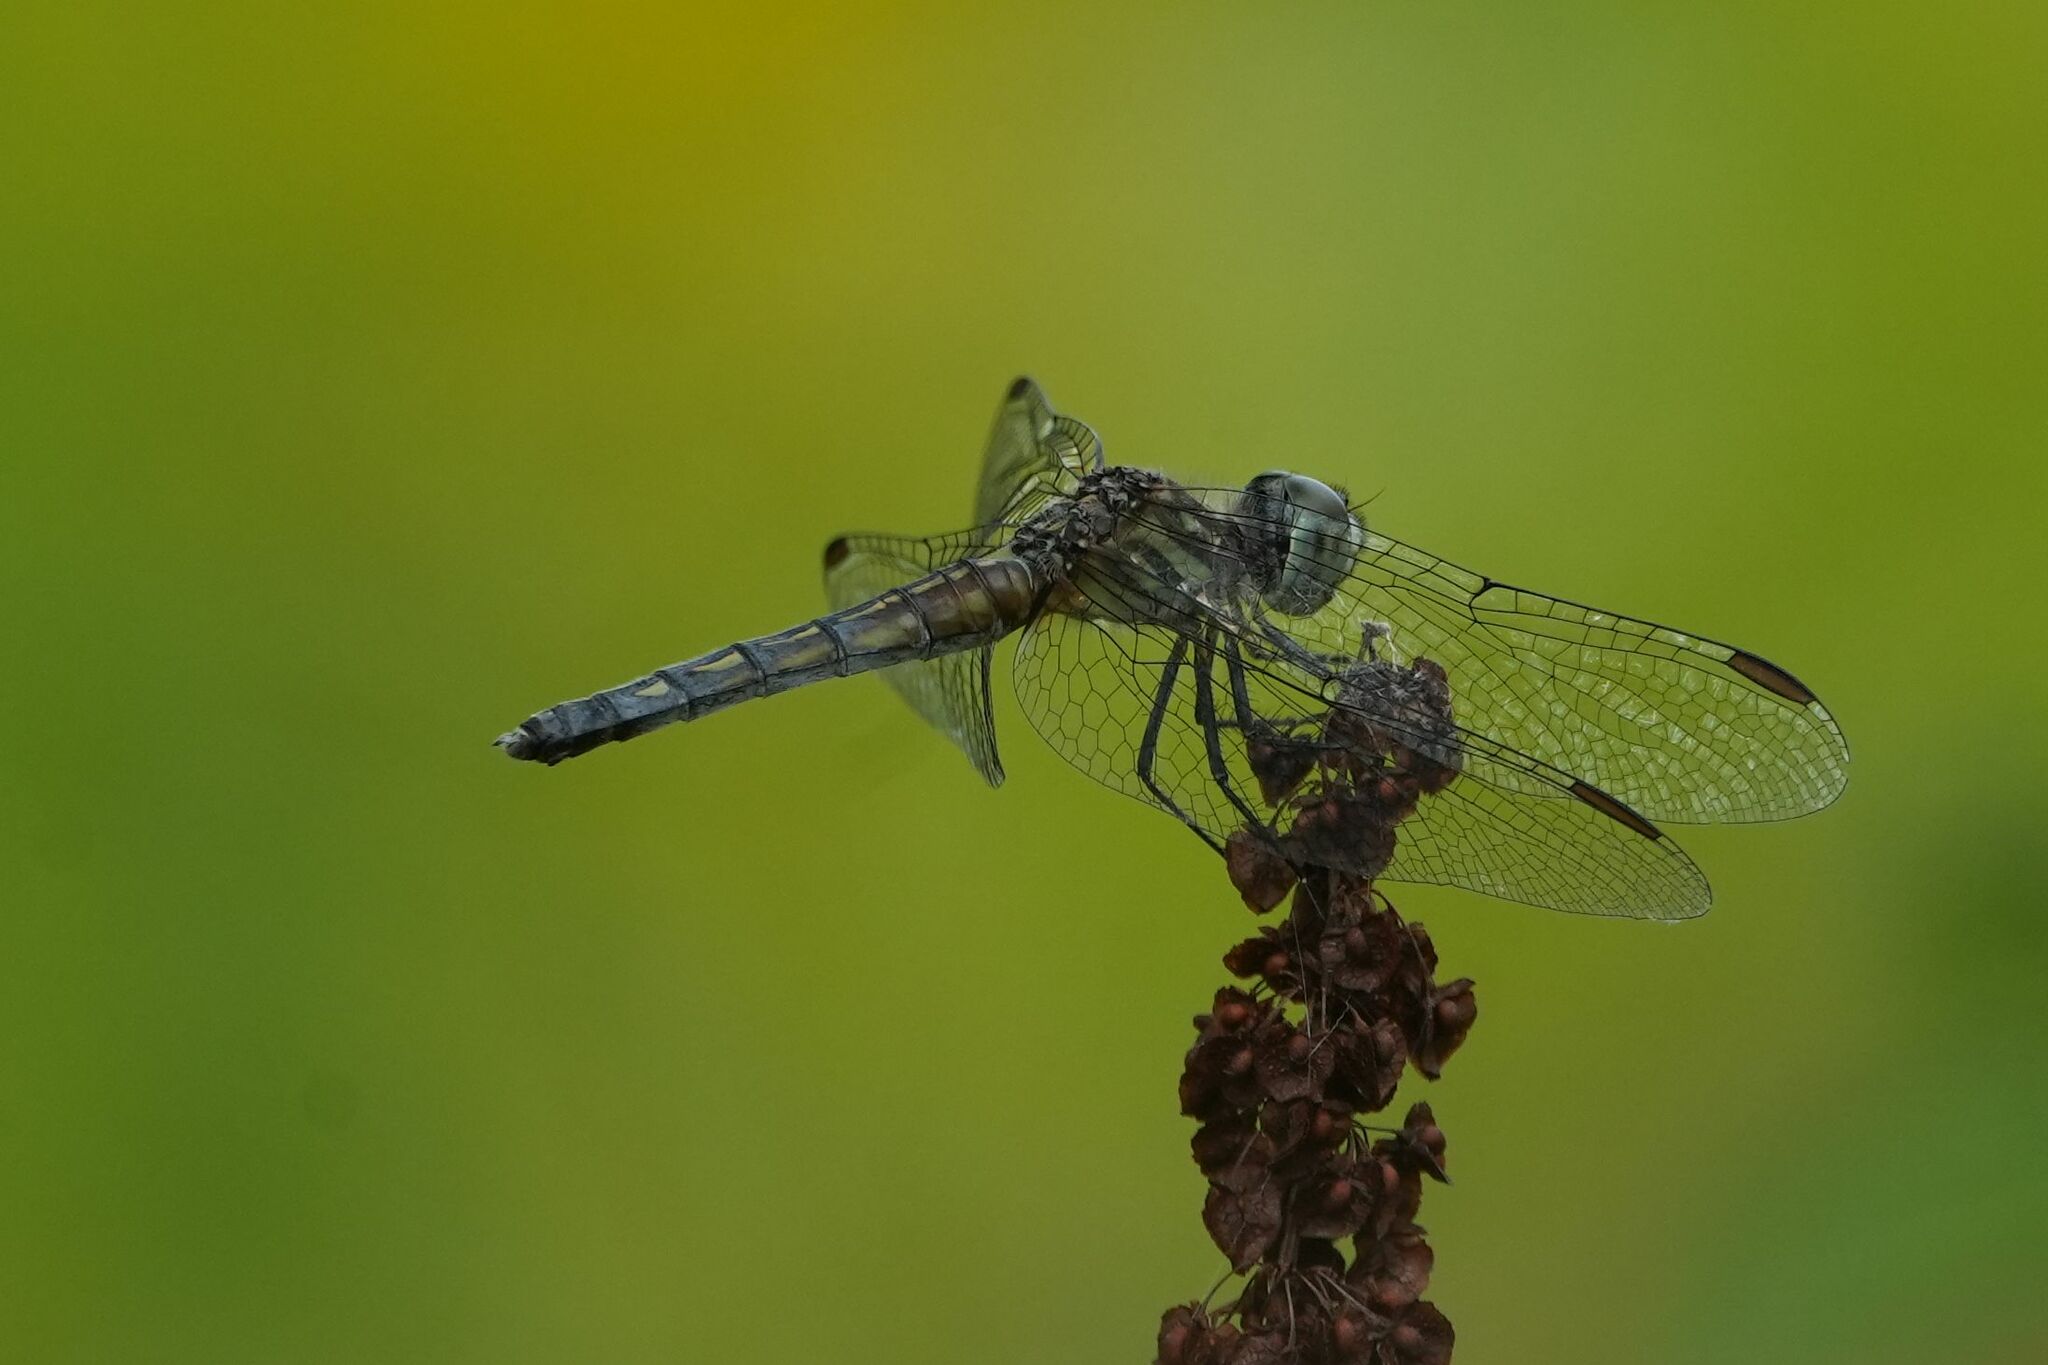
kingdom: Animalia
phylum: Arthropoda
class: Insecta
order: Odonata
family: Libellulidae
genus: Pachydiplax
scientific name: Pachydiplax longipennis
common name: Blue dasher
